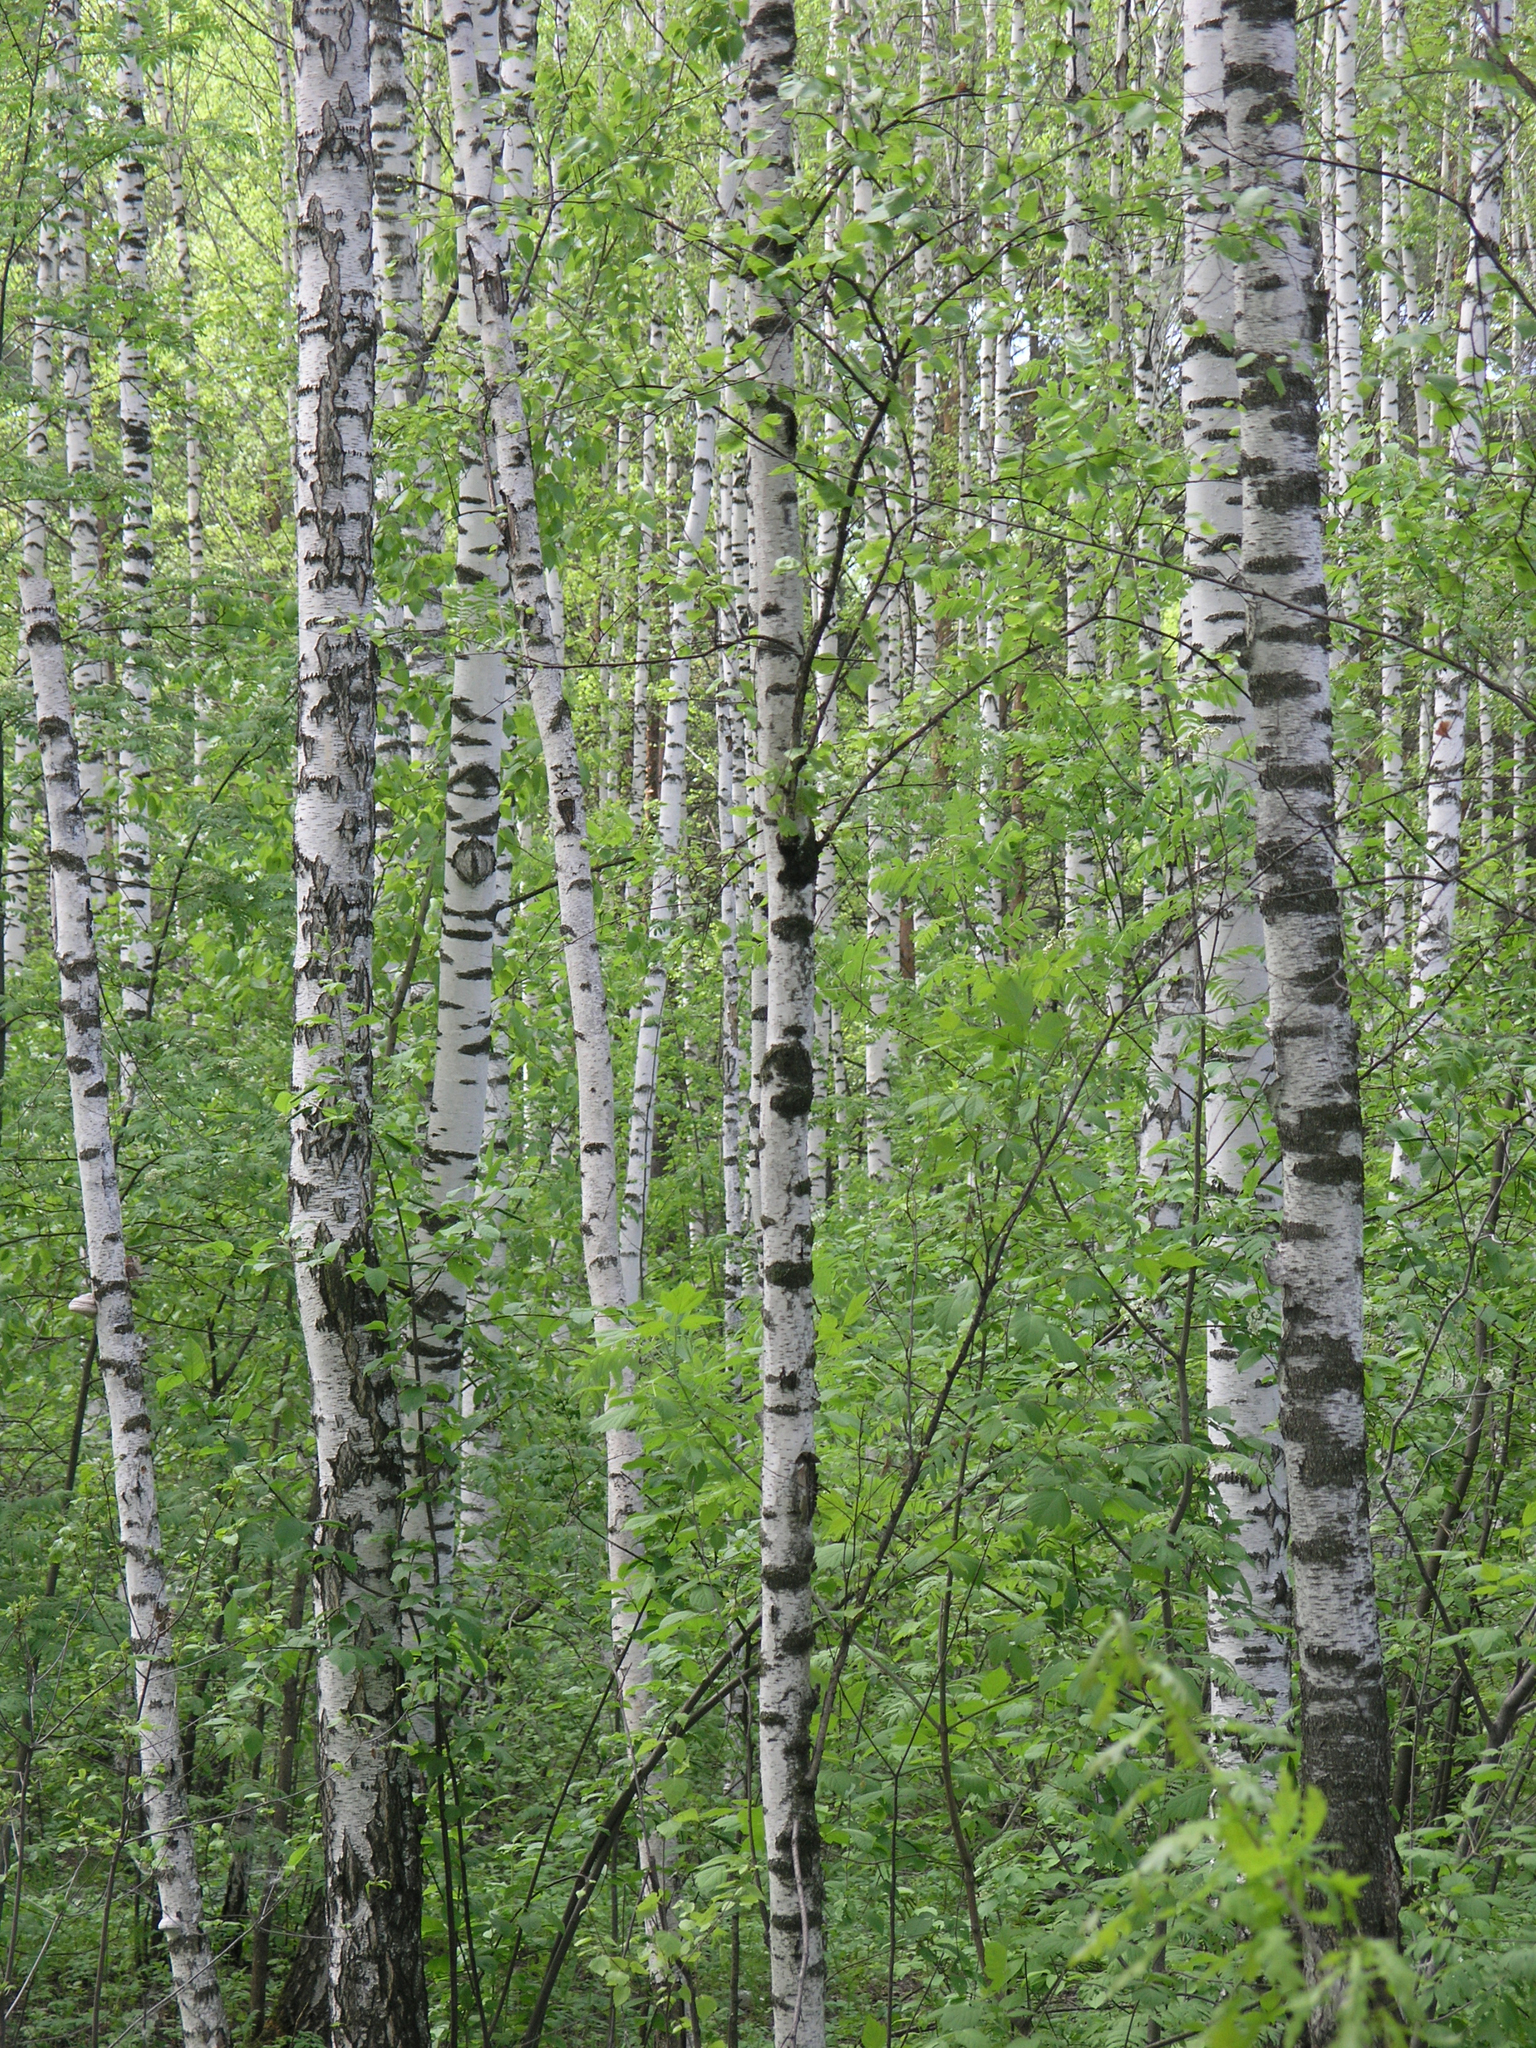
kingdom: Plantae
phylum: Tracheophyta
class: Magnoliopsida
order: Fagales
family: Betulaceae
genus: Betula
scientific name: Betula pendula
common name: Silver birch
